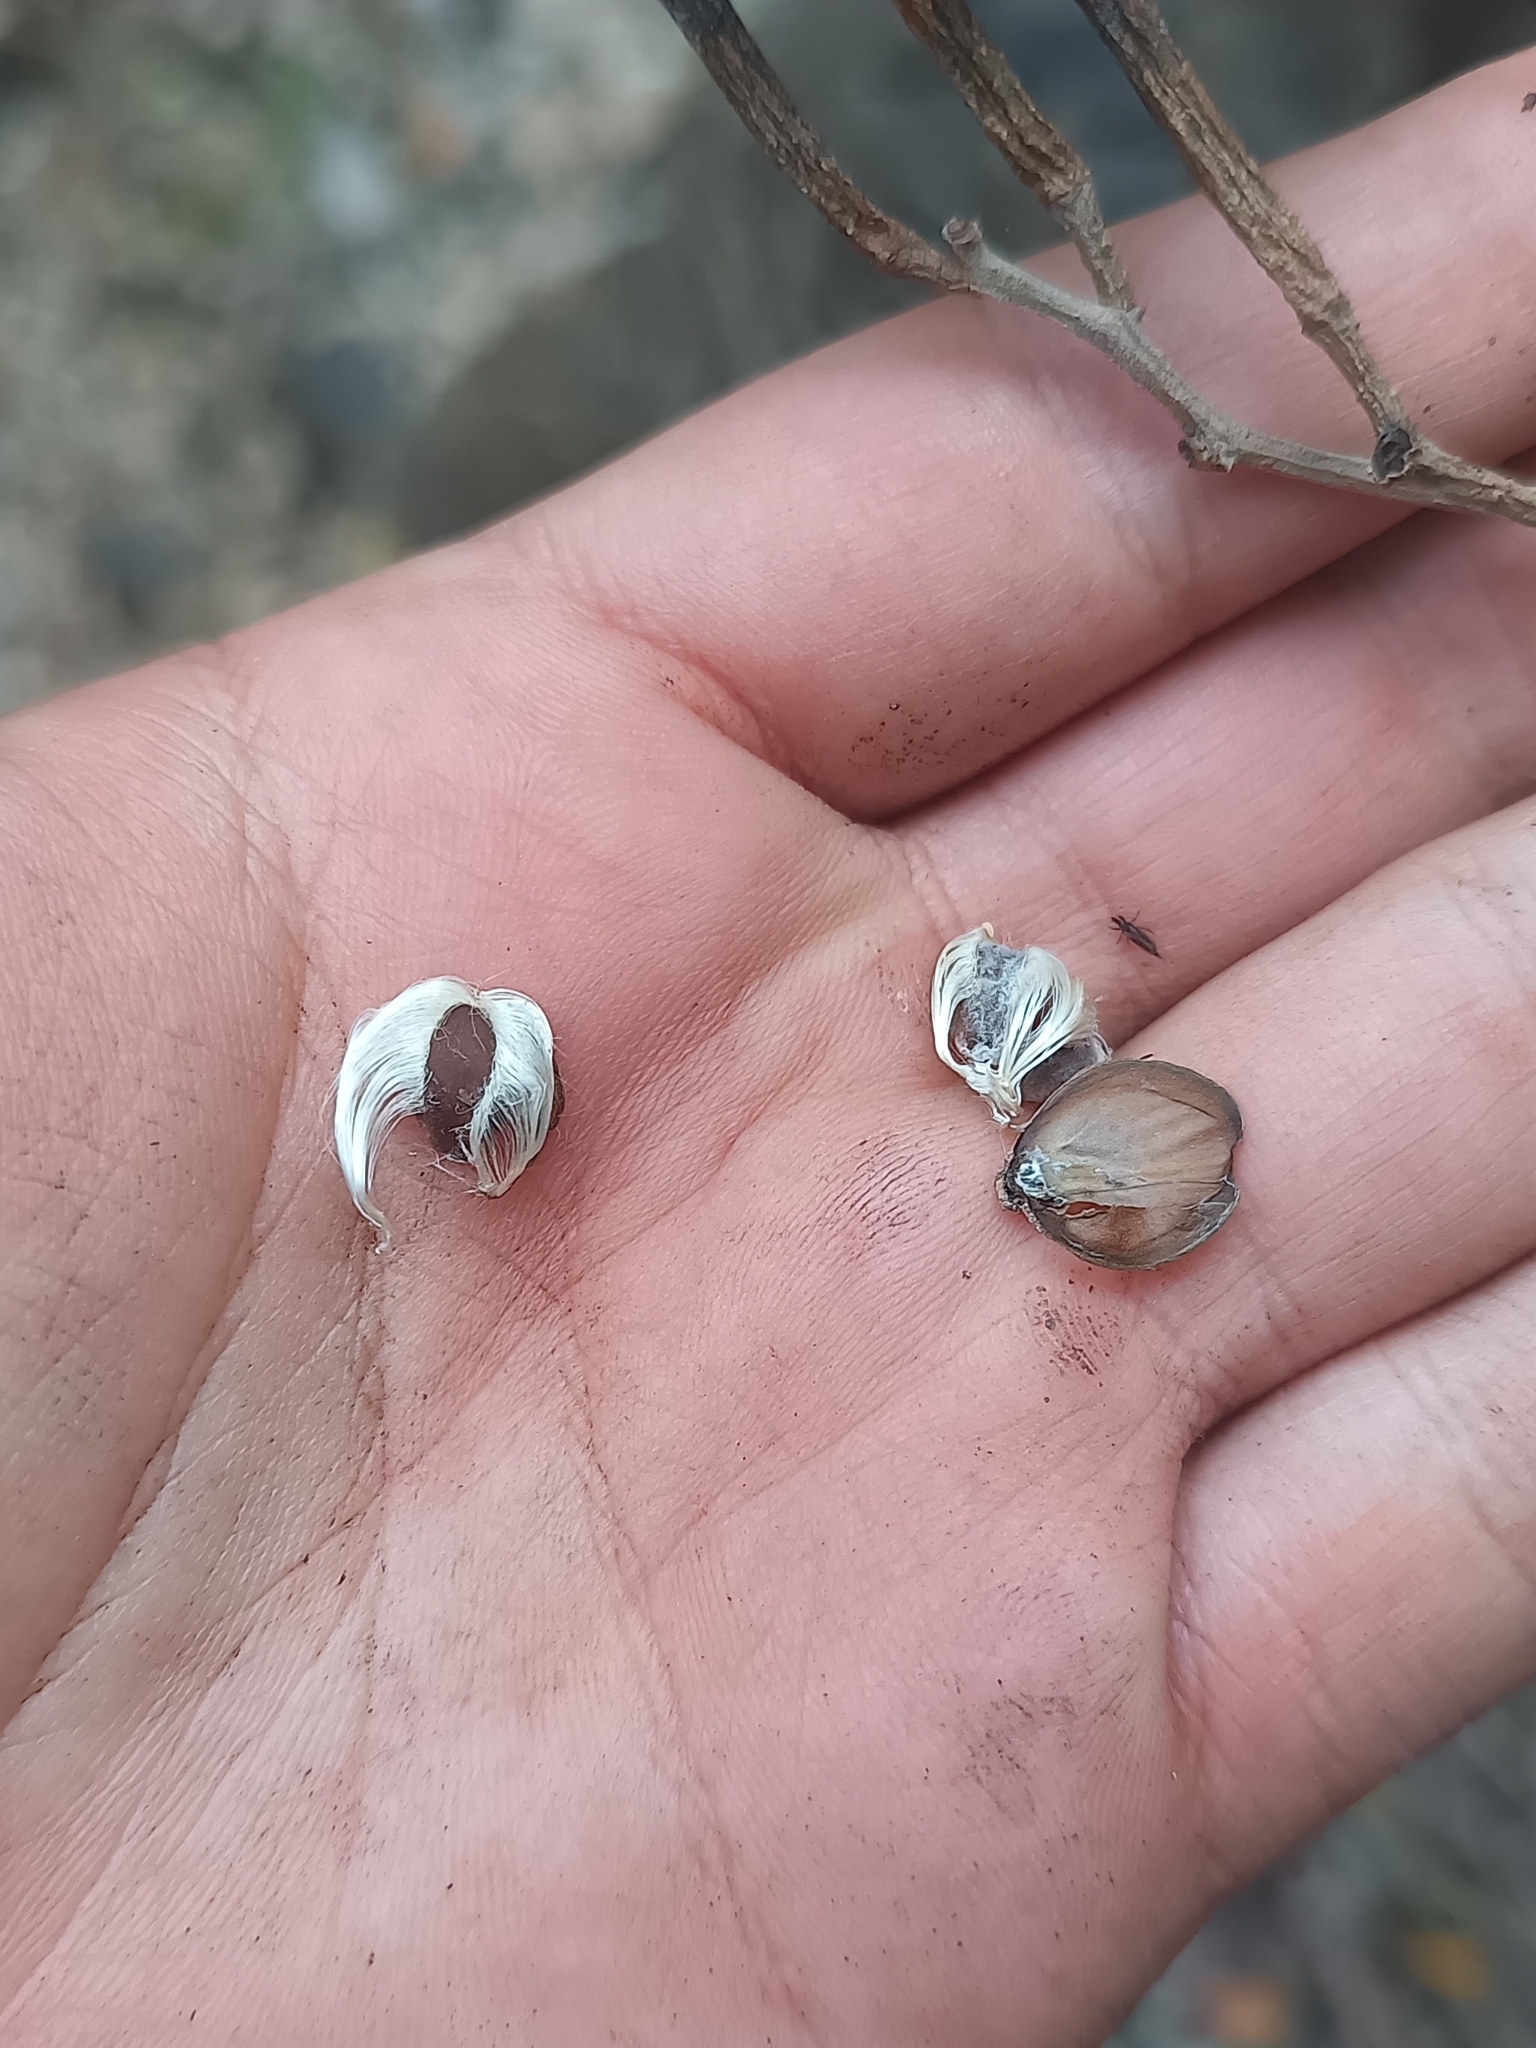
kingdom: Plantae
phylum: Tracheophyta
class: Magnoliopsida
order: Solanales
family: Convolvulaceae
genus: Ipomoea
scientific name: Ipomoea intrapilosa
